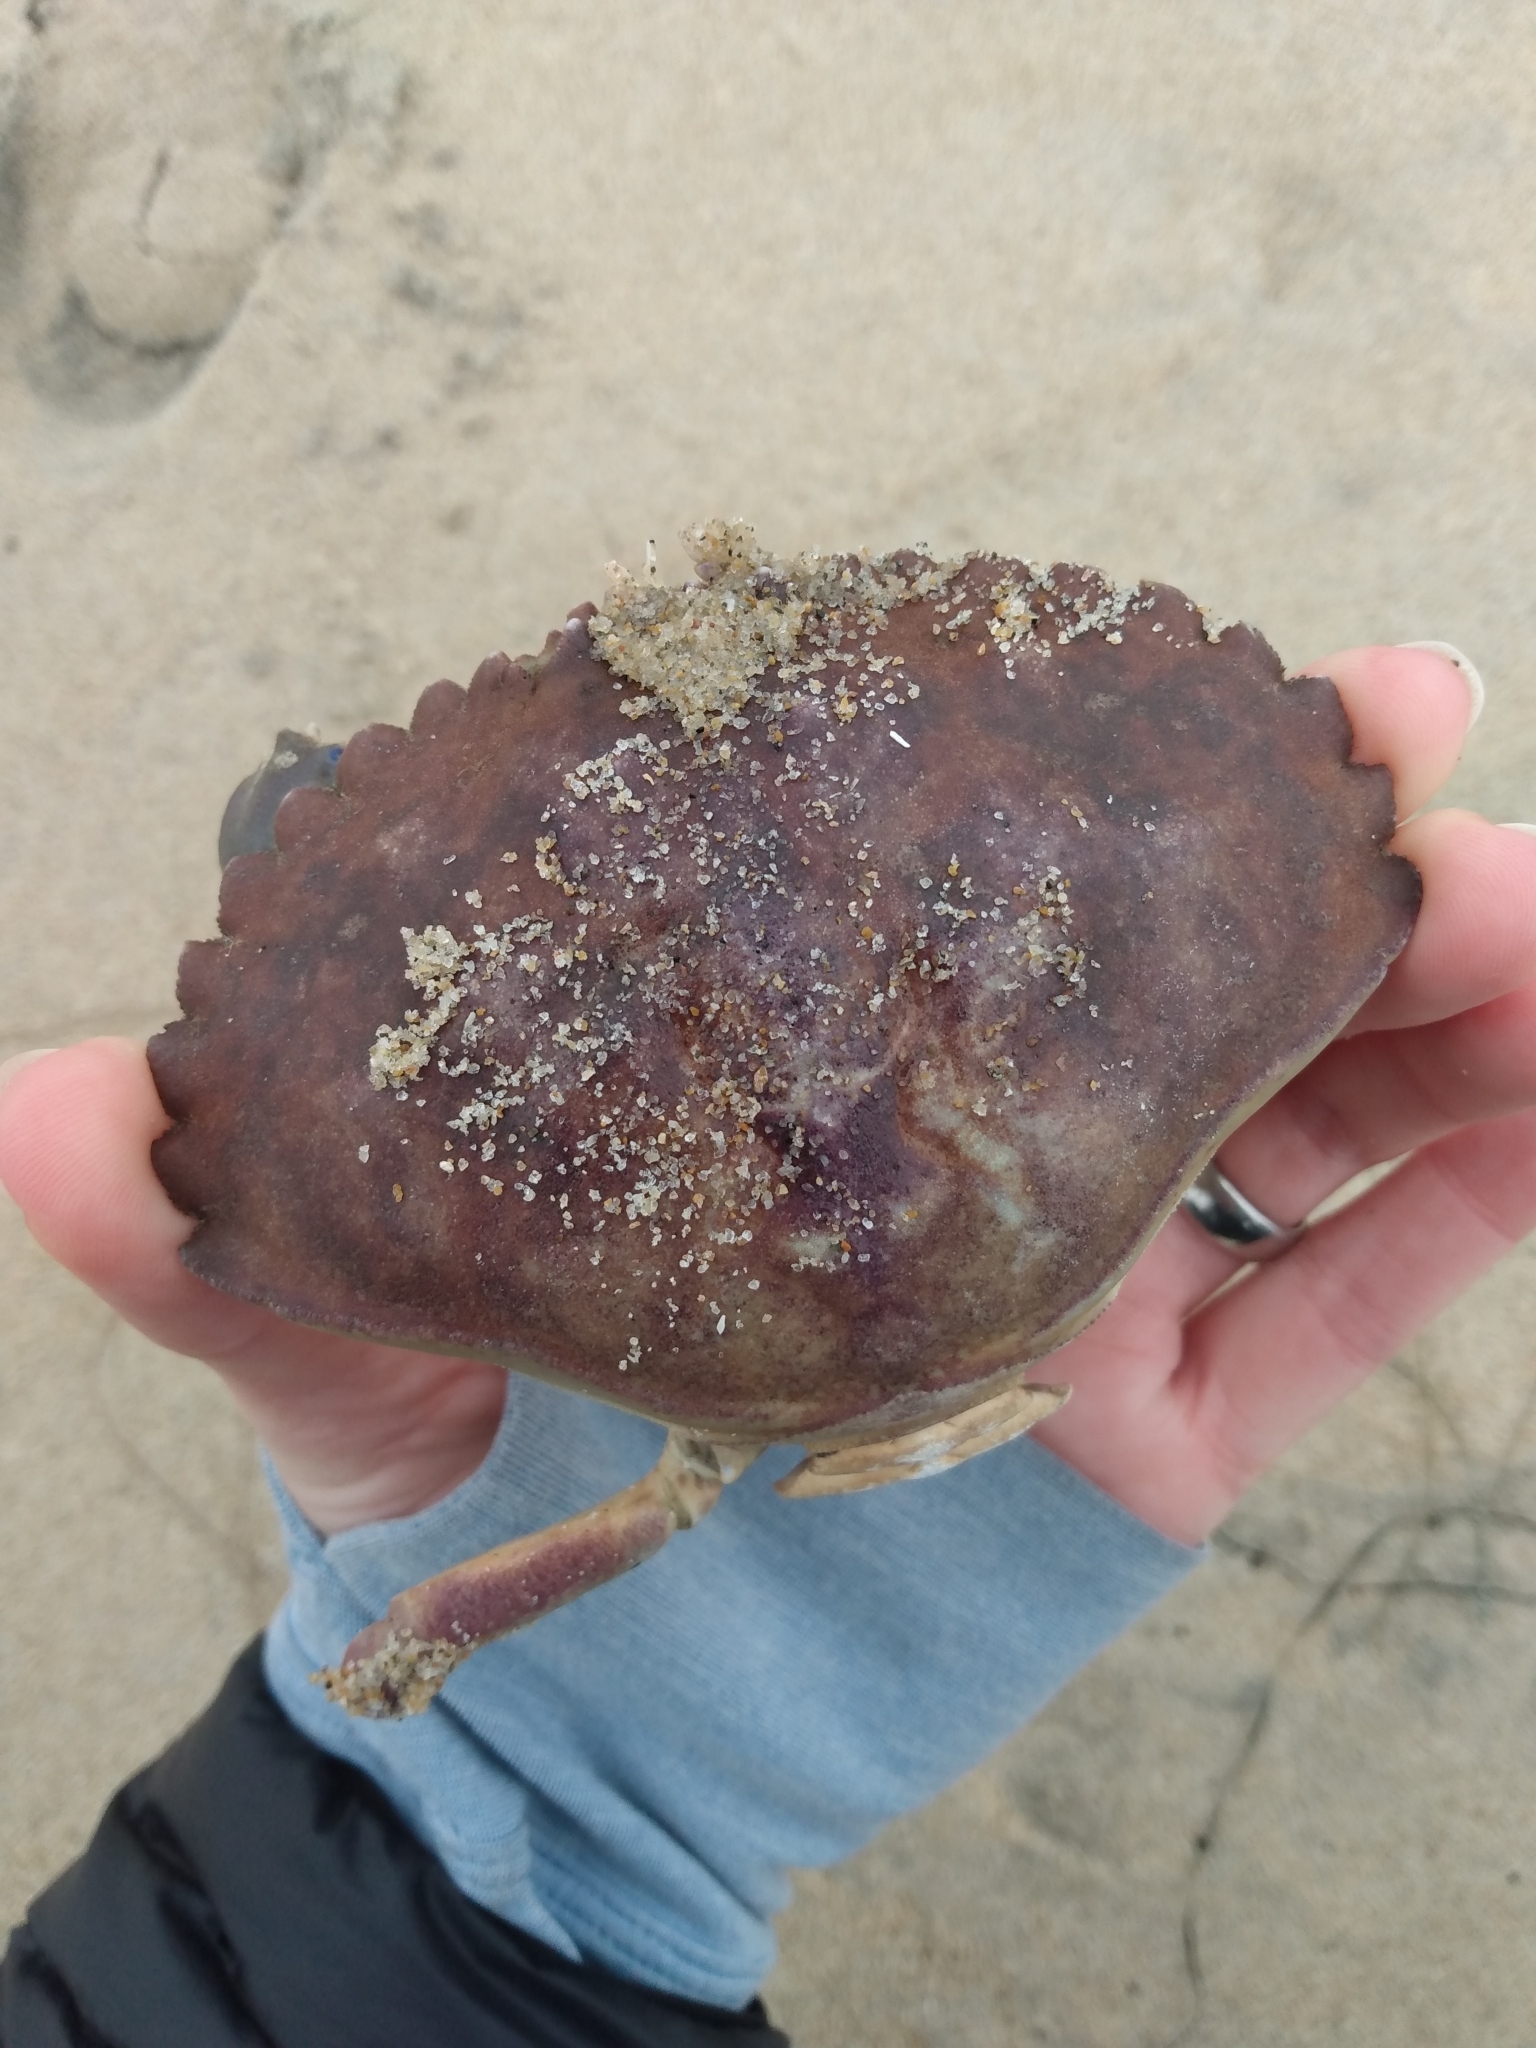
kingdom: Animalia
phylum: Arthropoda
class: Malacostraca
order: Decapoda
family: Cancridae
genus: Metacarcinus
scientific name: Metacarcinus anthonyi
